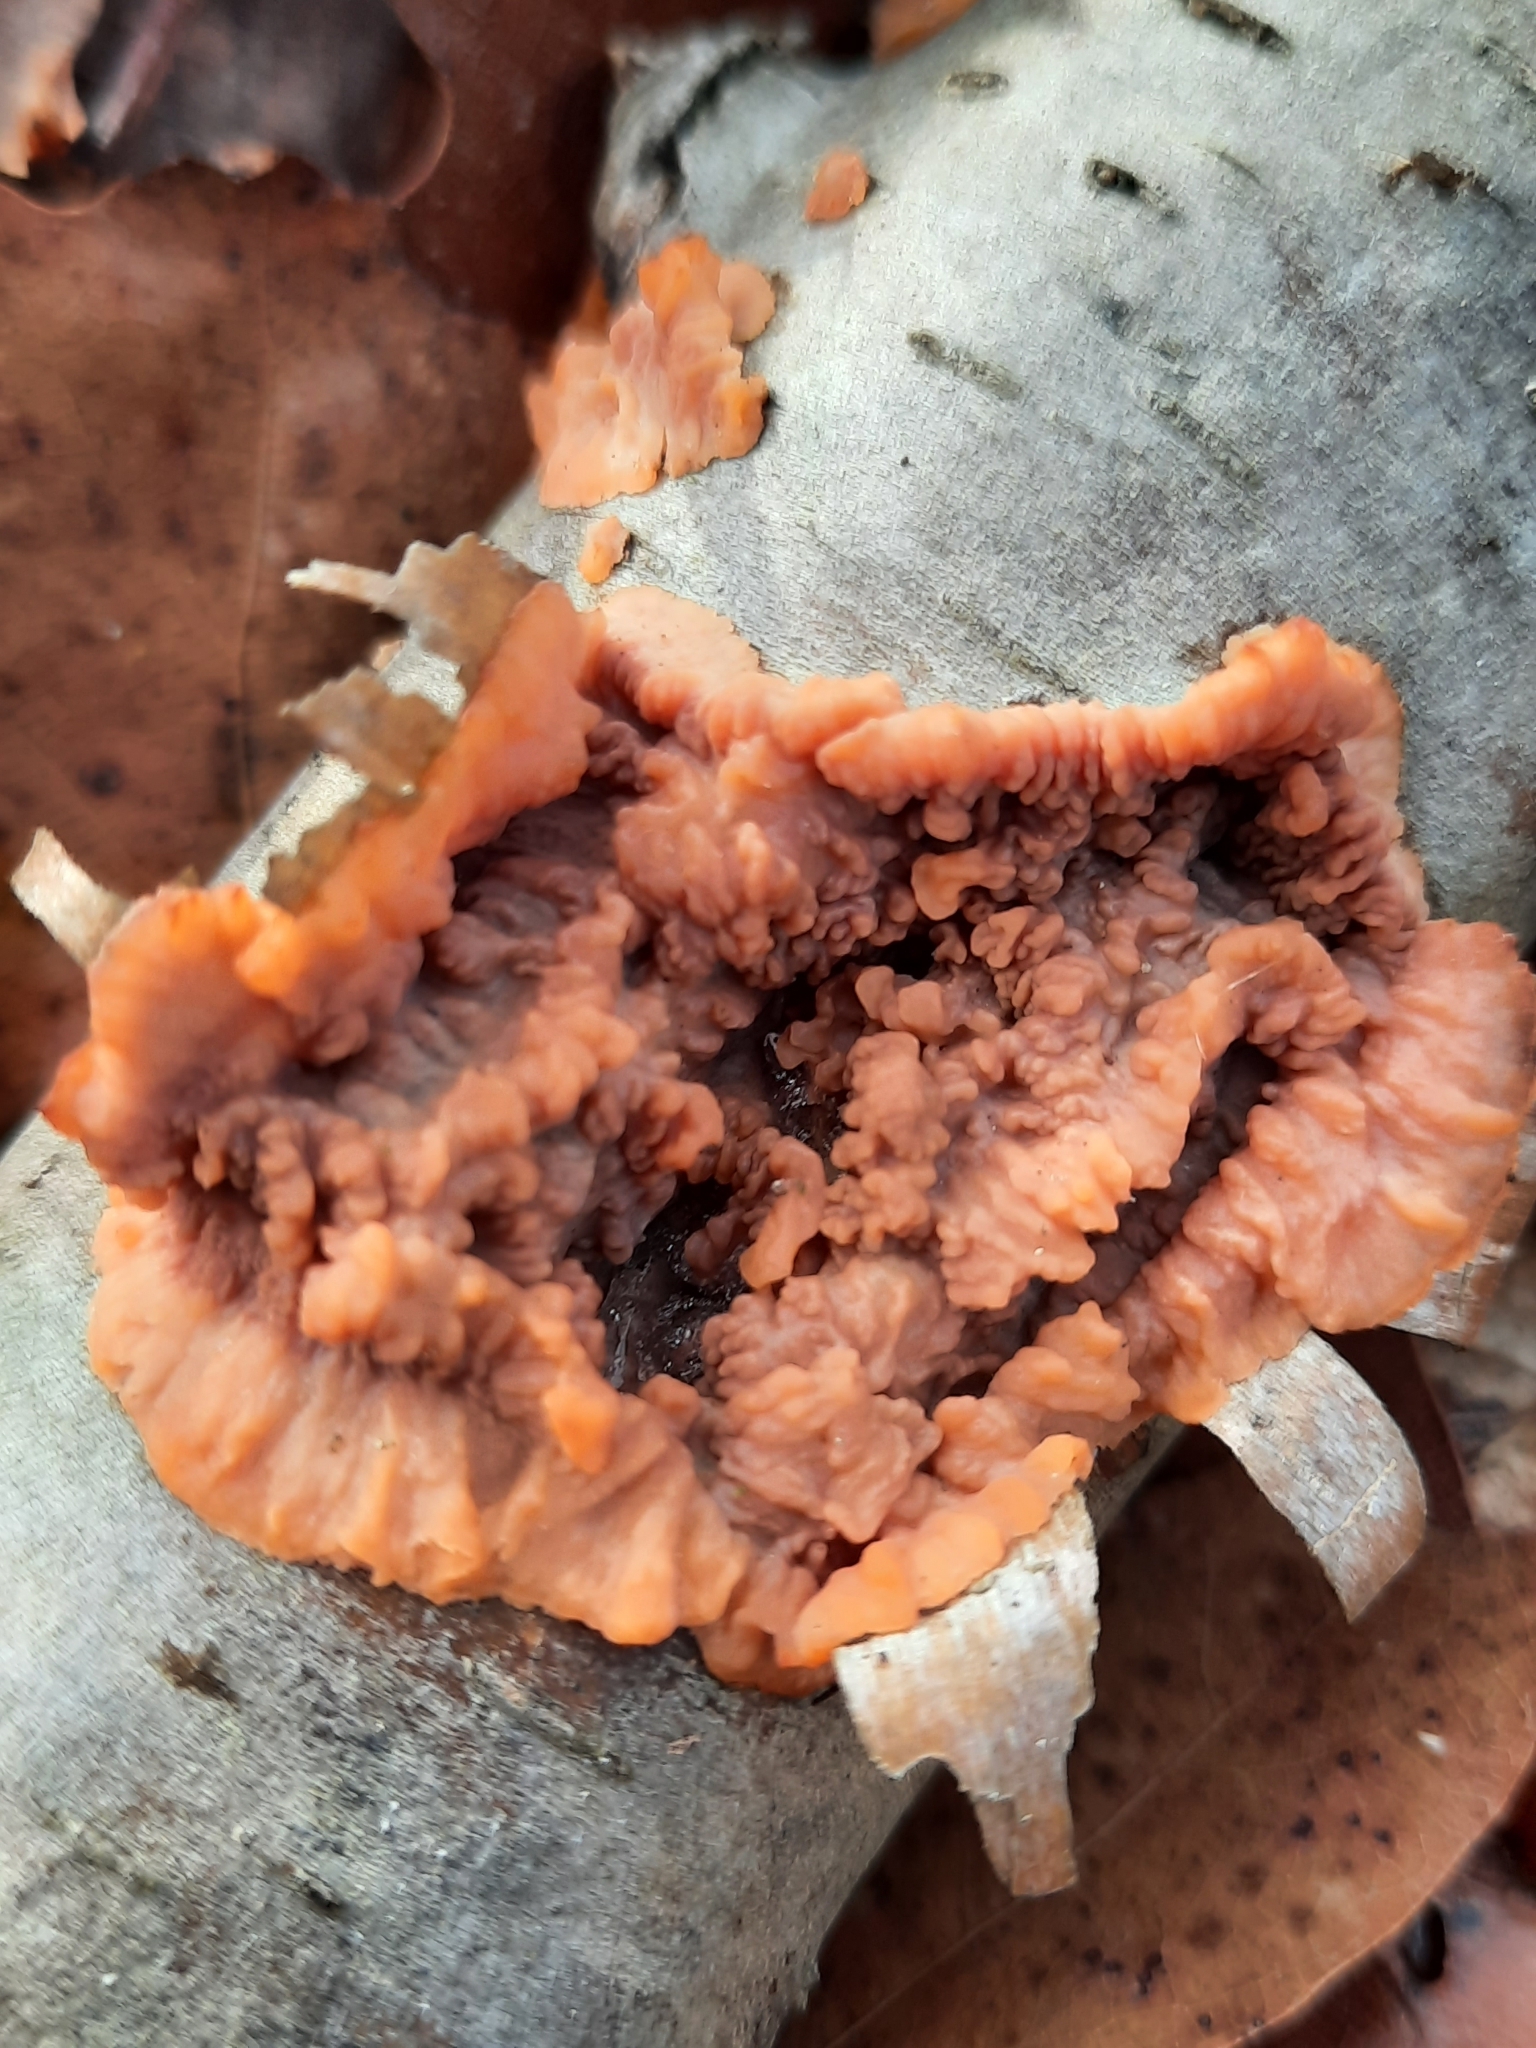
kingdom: Fungi
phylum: Basidiomycota
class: Agaricomycetes
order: Polyporales
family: Meruliaceae
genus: Phlebia
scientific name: Phlebia radiata
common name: Wrinkled crust
